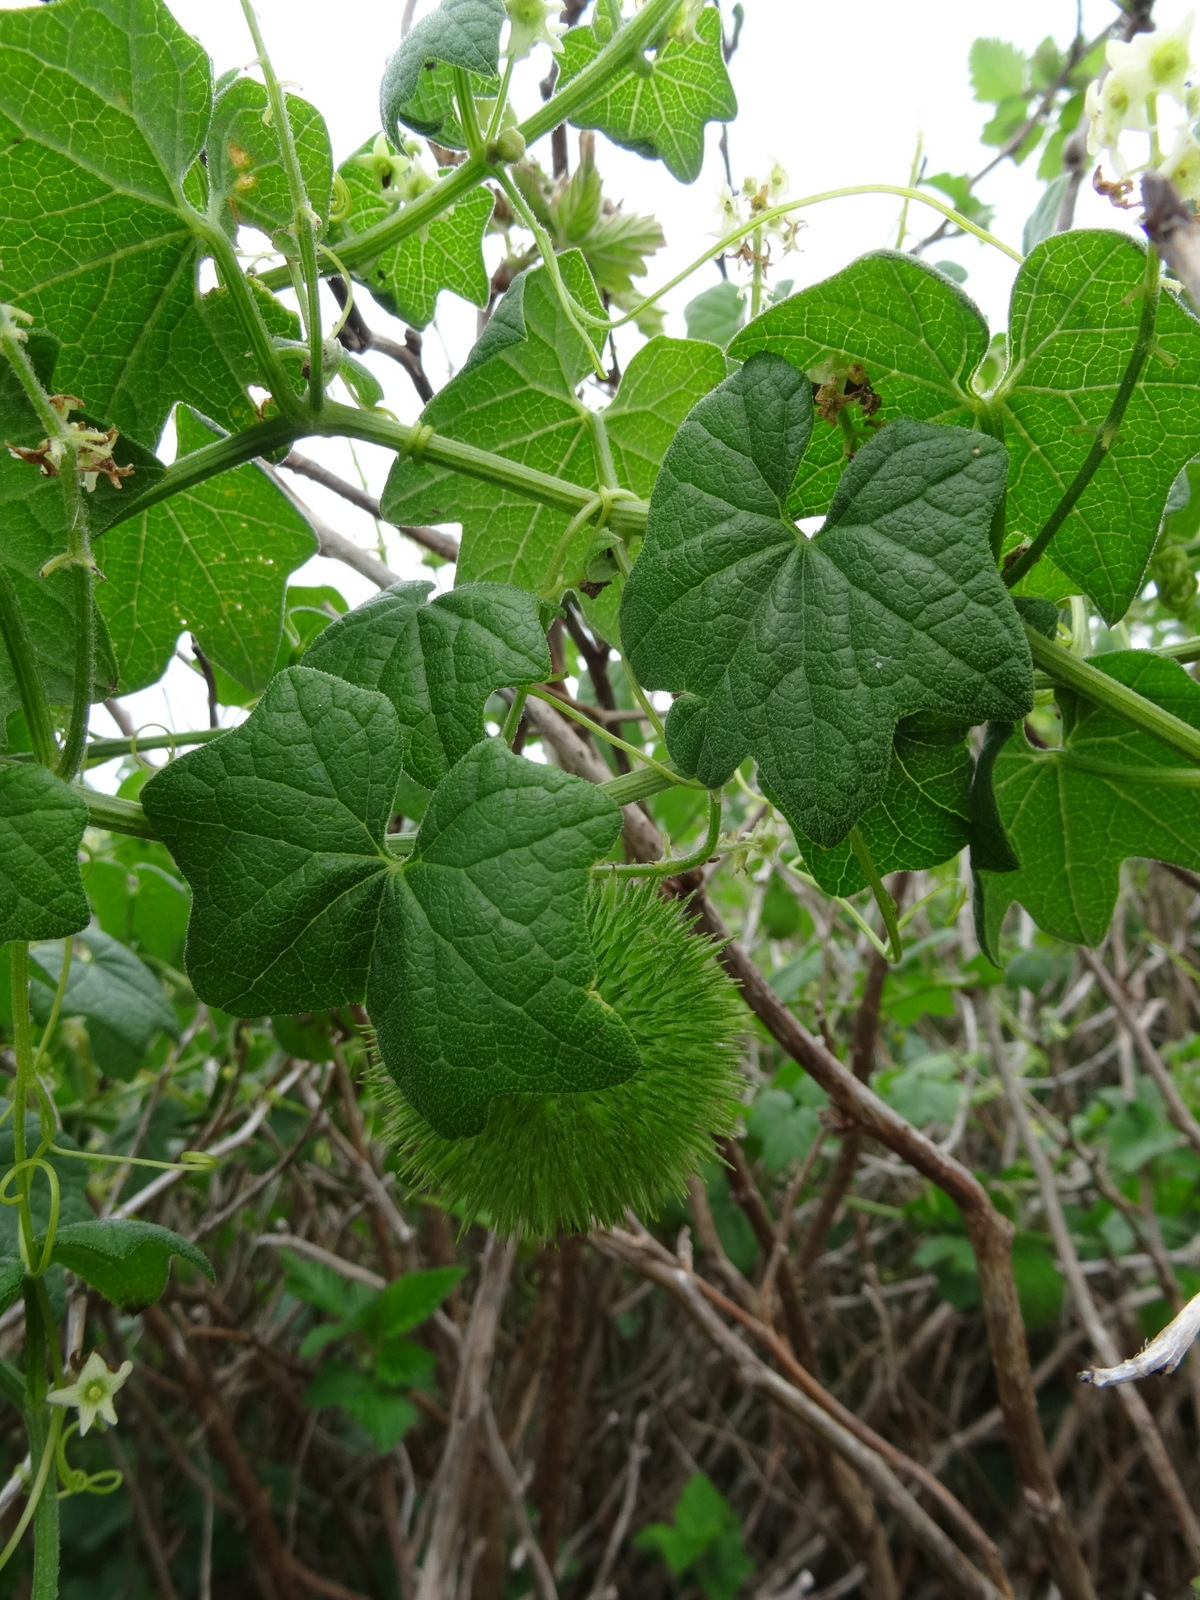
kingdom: Plantae
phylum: Tracheophyta
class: Magnoliopsida
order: Cucurbitales
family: Cucurbitaceae
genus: Marah
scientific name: Marah fabacea
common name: California manroot
